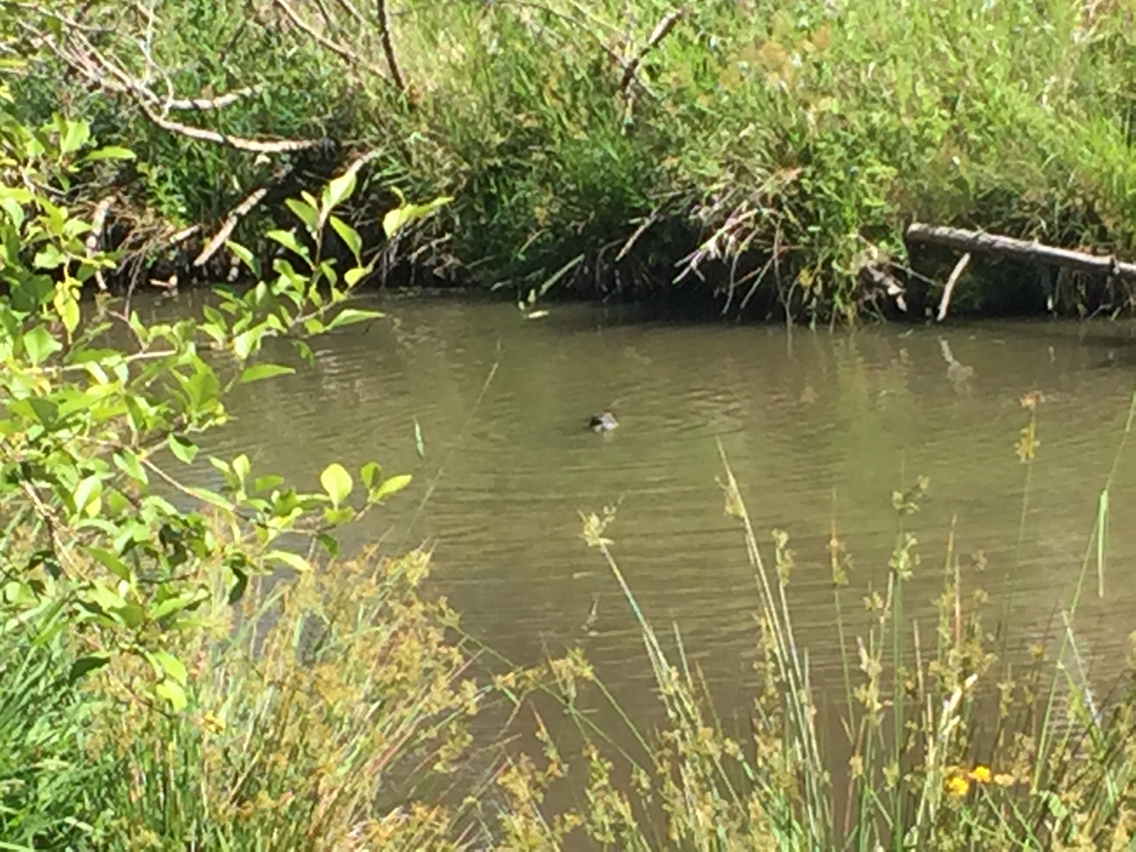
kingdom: Animalia
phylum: Chordata
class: Mammalia
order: Rodentia
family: Myocastoridae
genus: Myocastor
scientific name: Myocastor coypus
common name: Coypu
